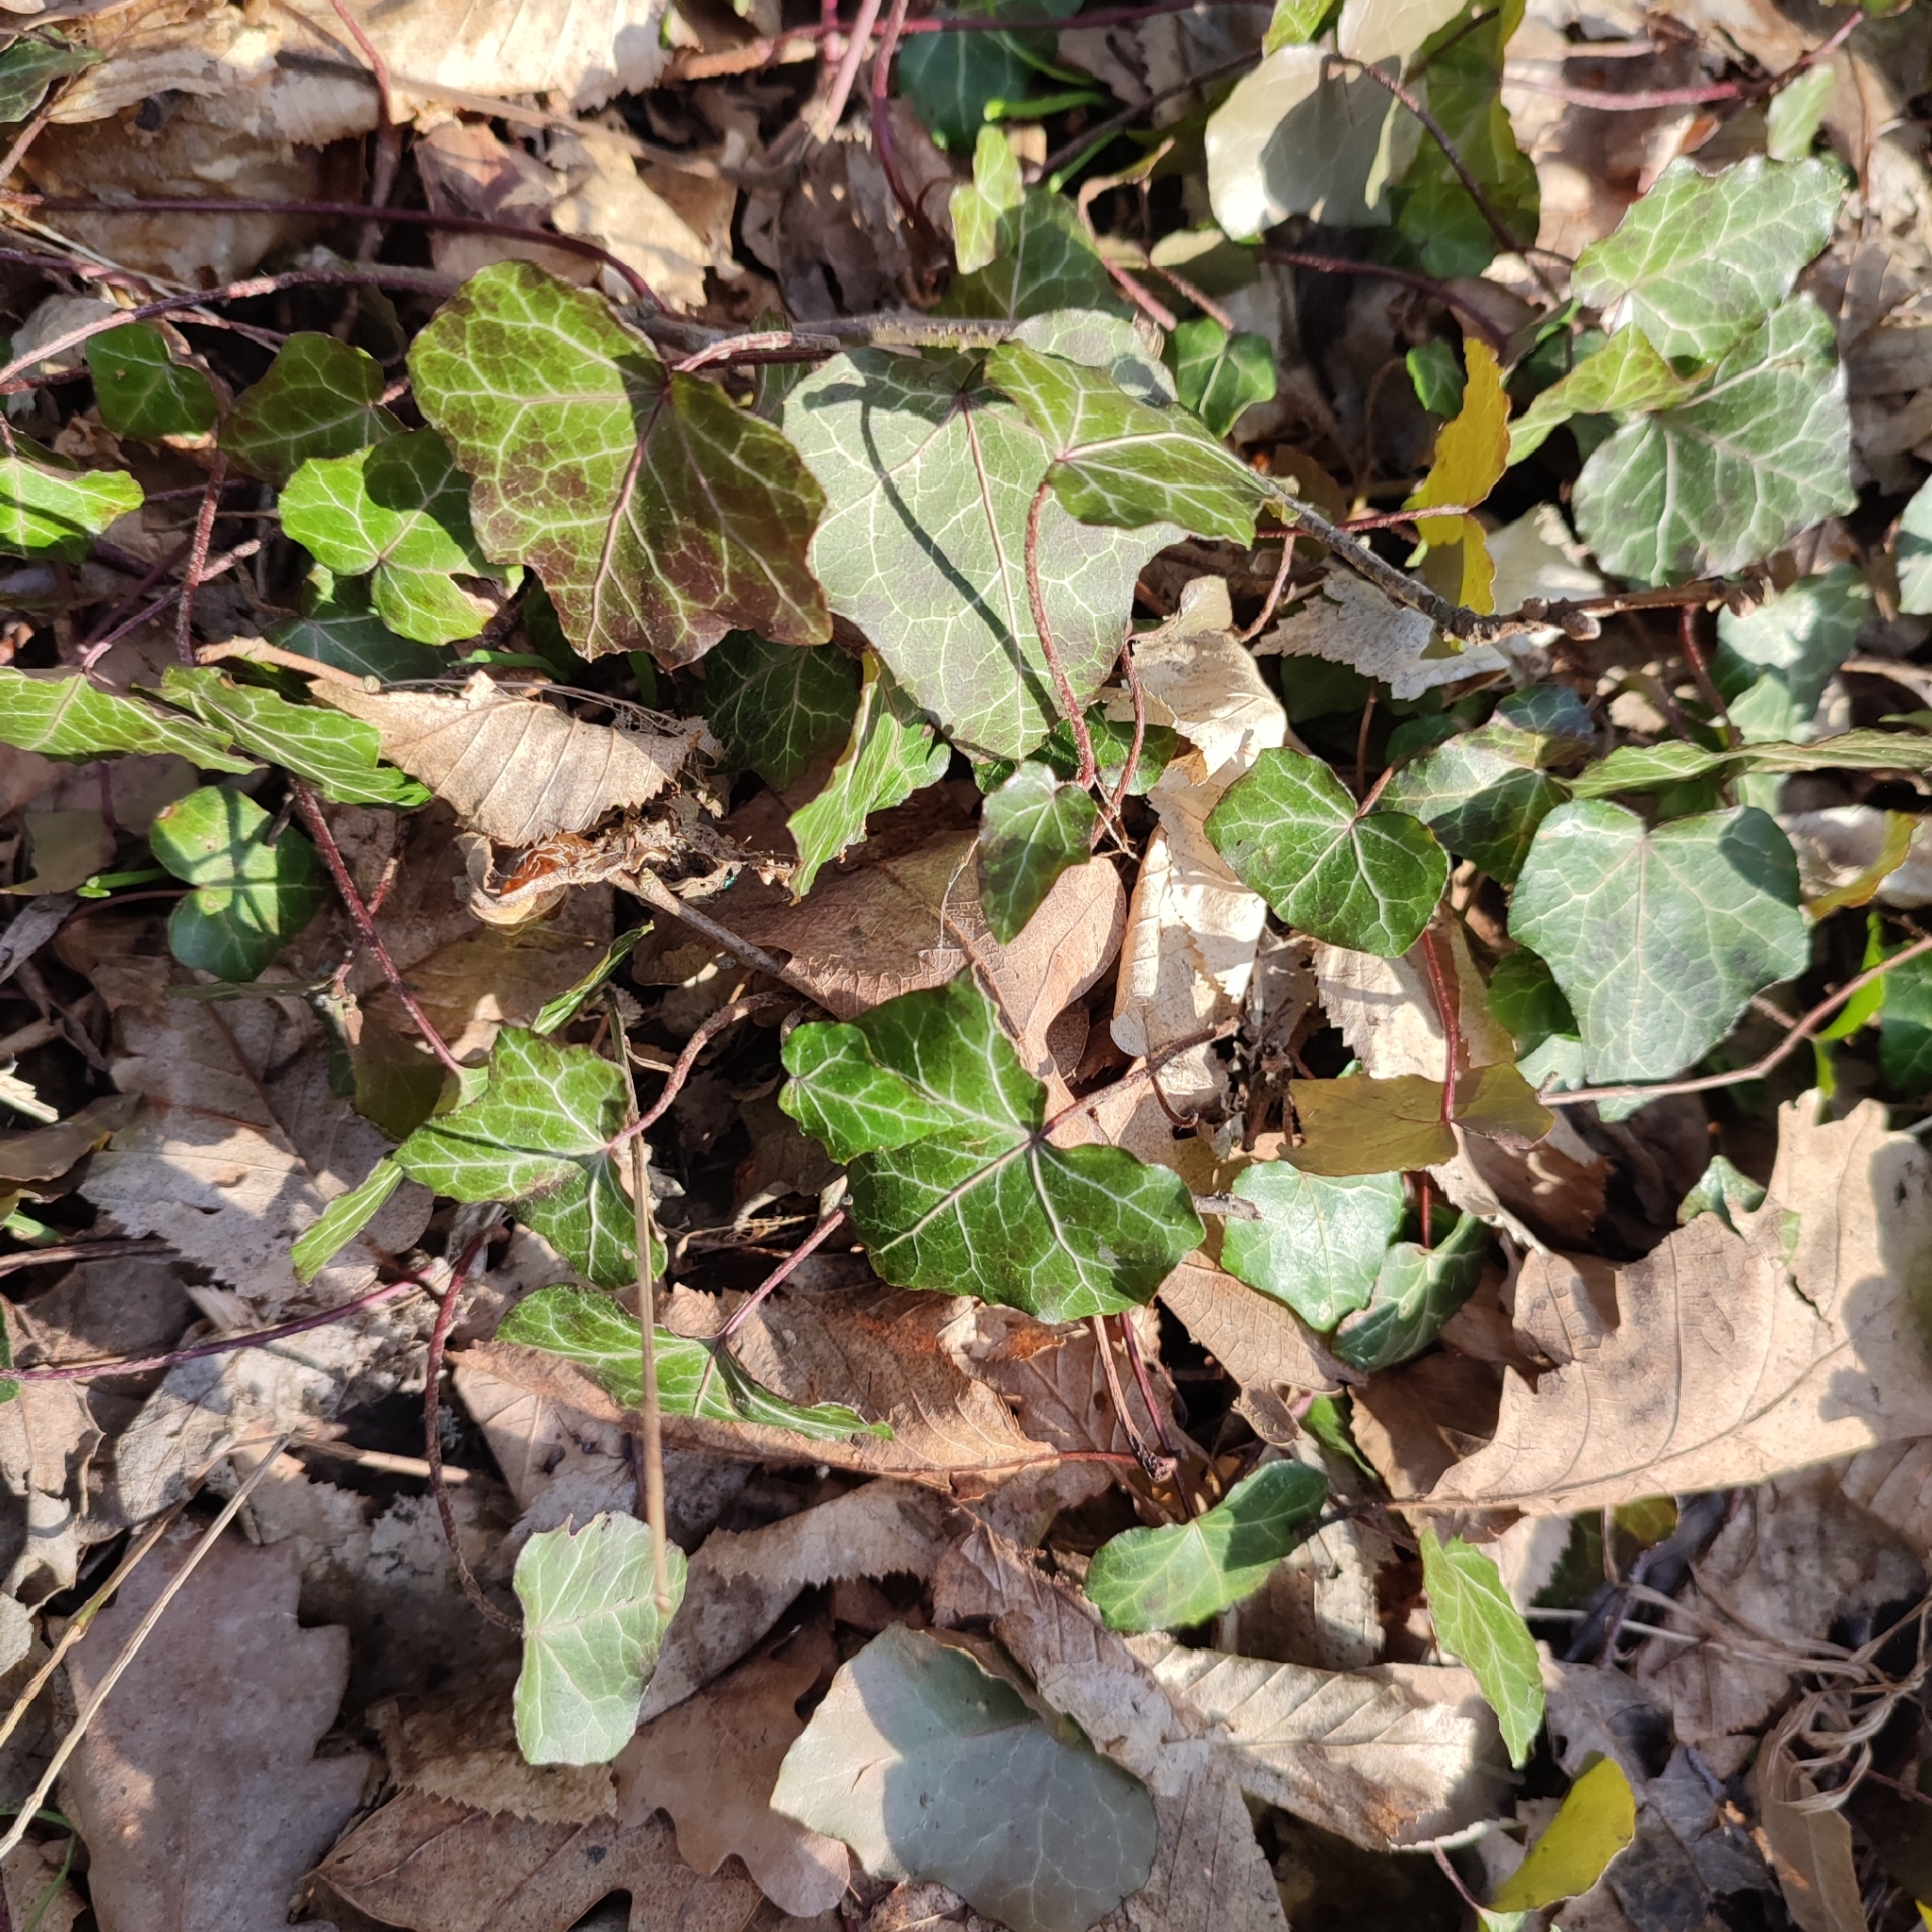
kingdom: Plantae
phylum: Tracheophyta
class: Magnoliopsida
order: Apiales
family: Araliaceae
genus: Hedera
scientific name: Hedera helix
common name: Ivy
